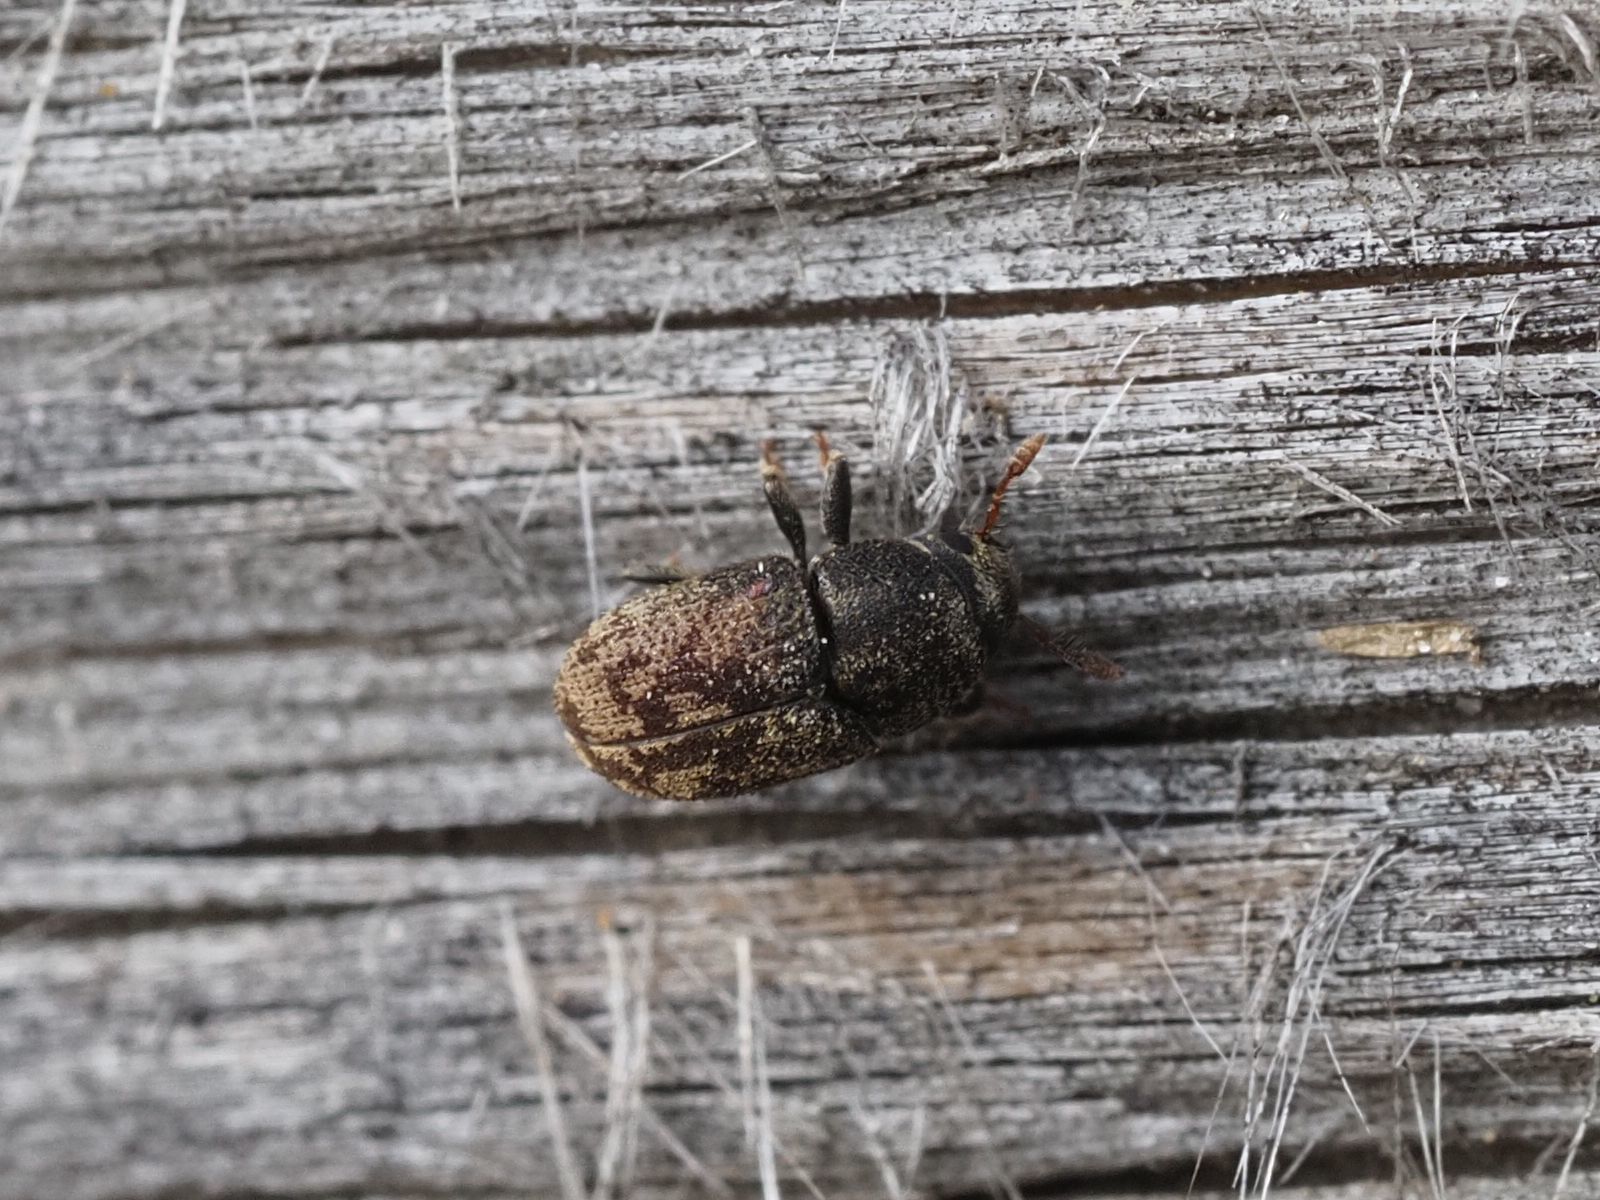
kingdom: Animalia
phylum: Arthropoda
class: Insecta
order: Coleoptera
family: Curculionidae
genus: Hylesinus
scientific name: Hylesinus varius
